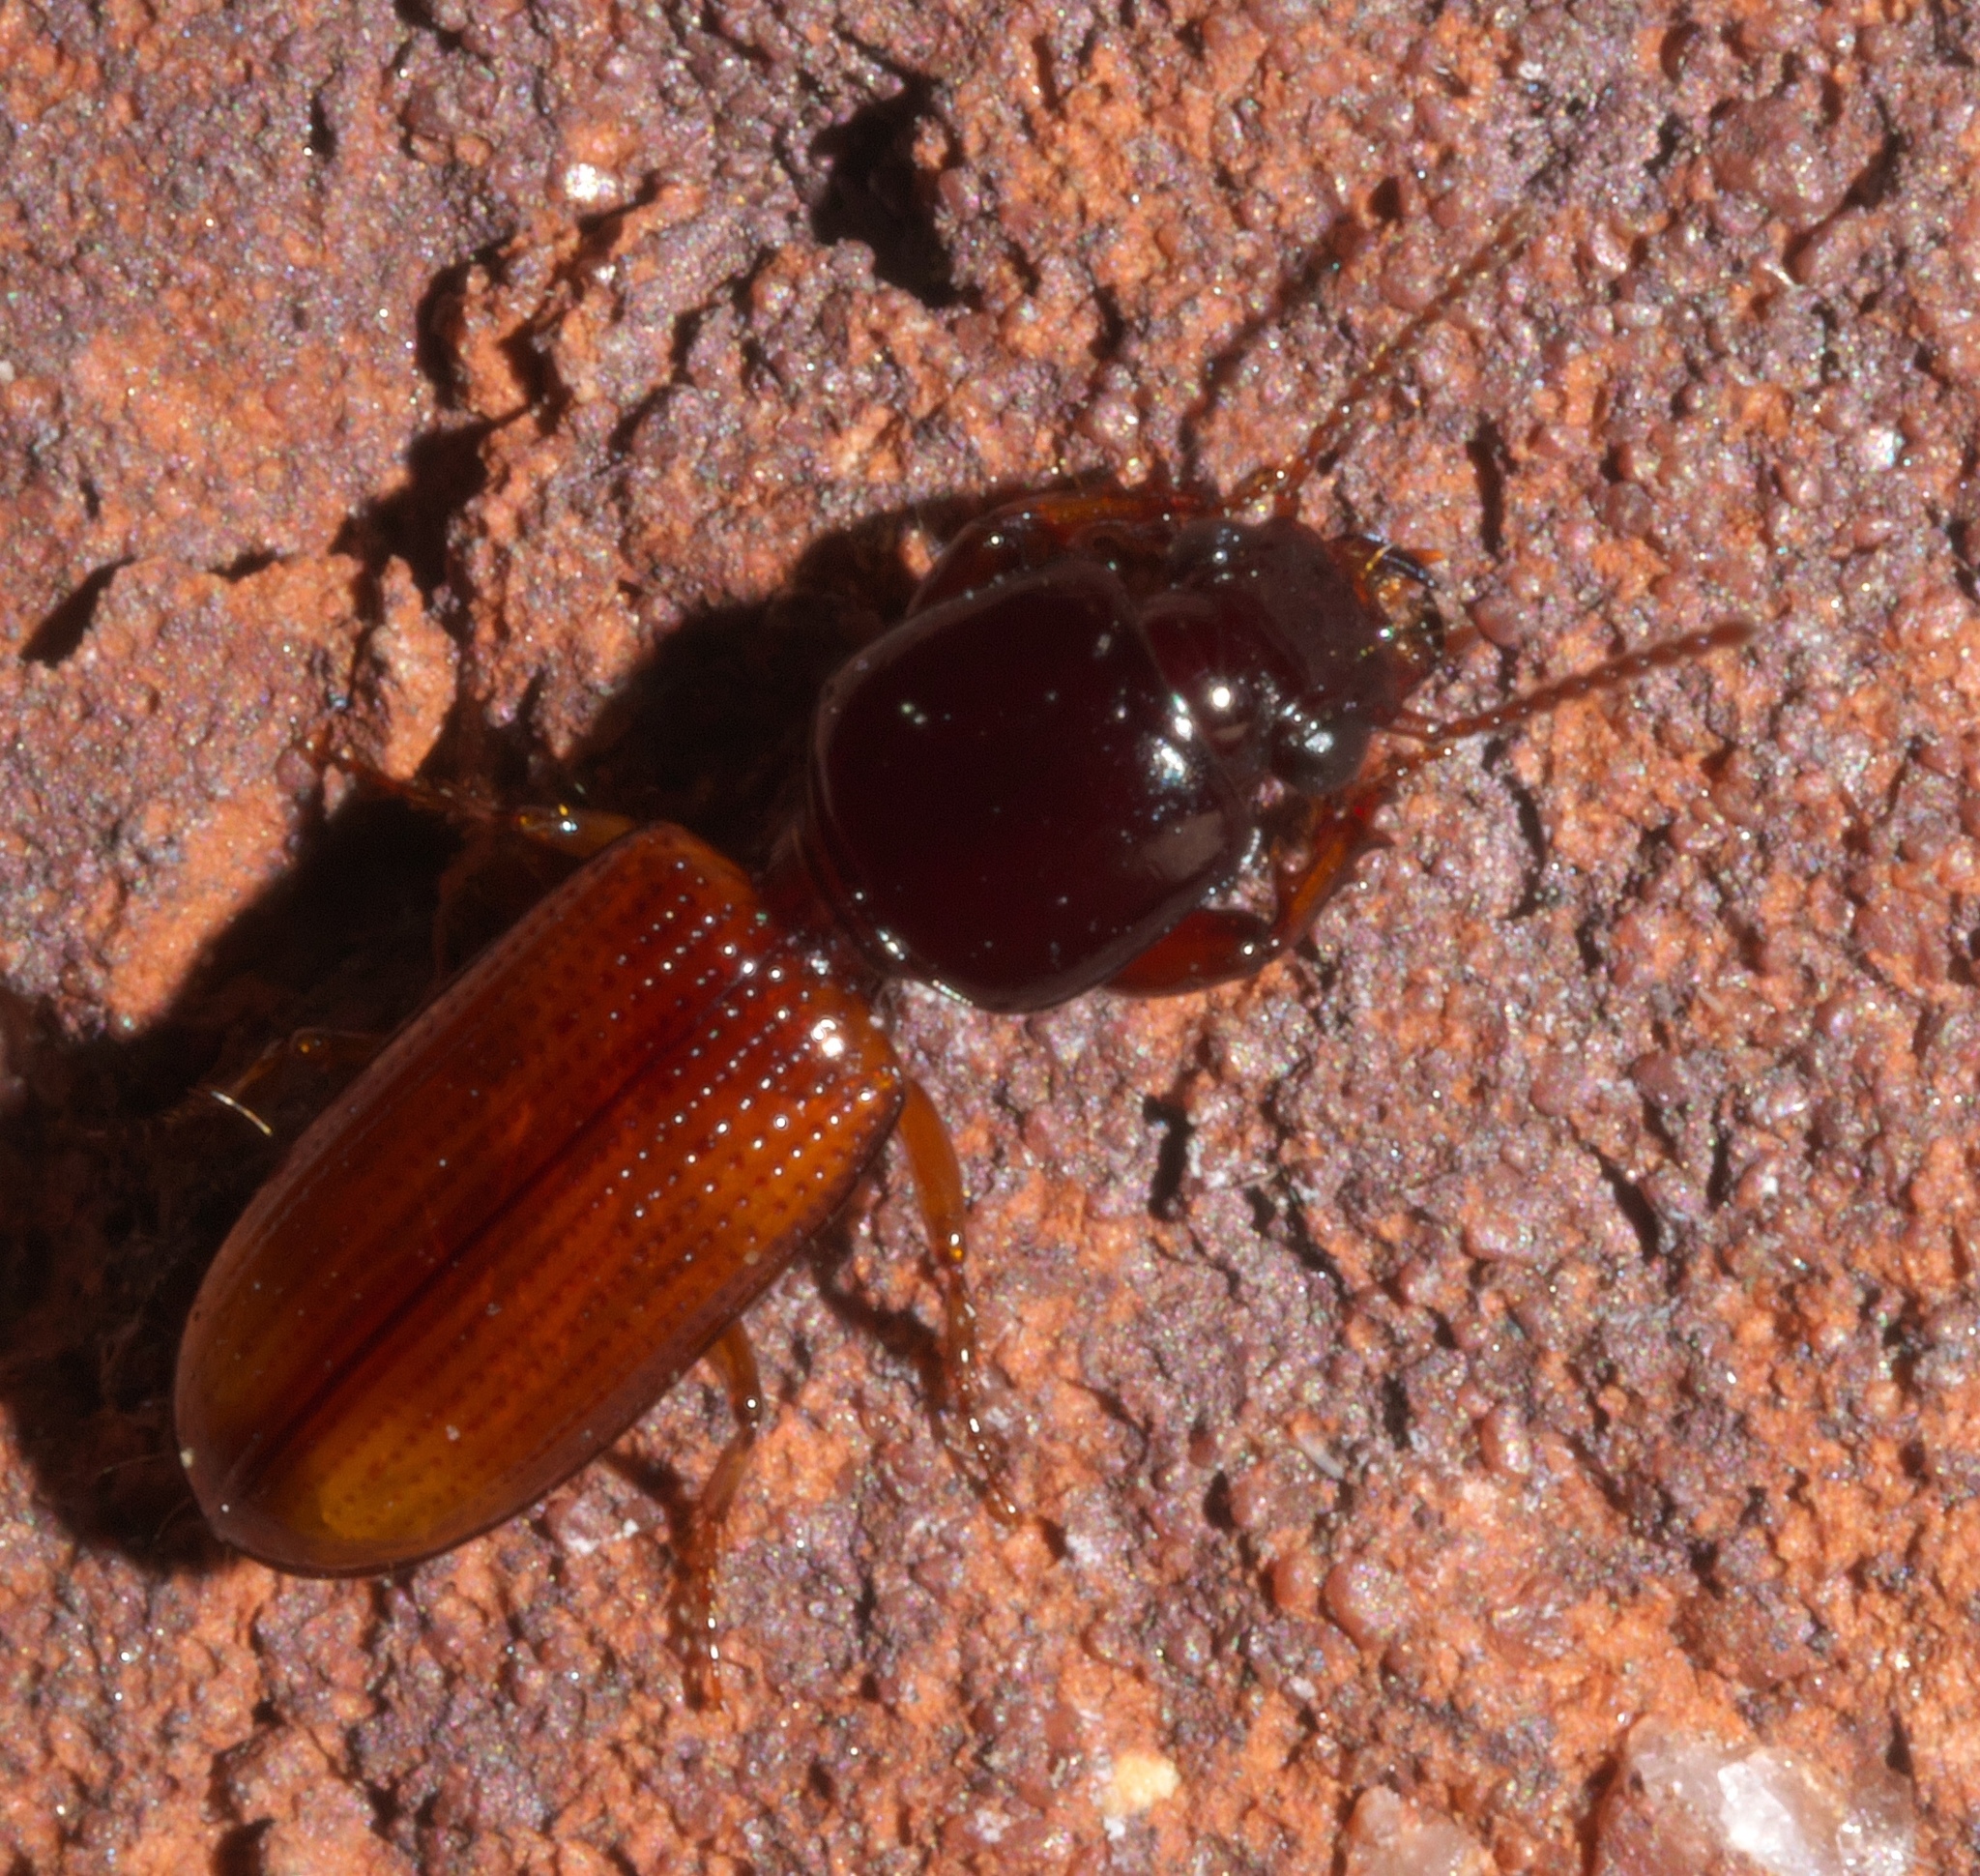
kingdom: Animalia
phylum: Arthropoda
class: Insecta
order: Coleoptera
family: Carabidae
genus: Clivina
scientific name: Clivina bipustulata
